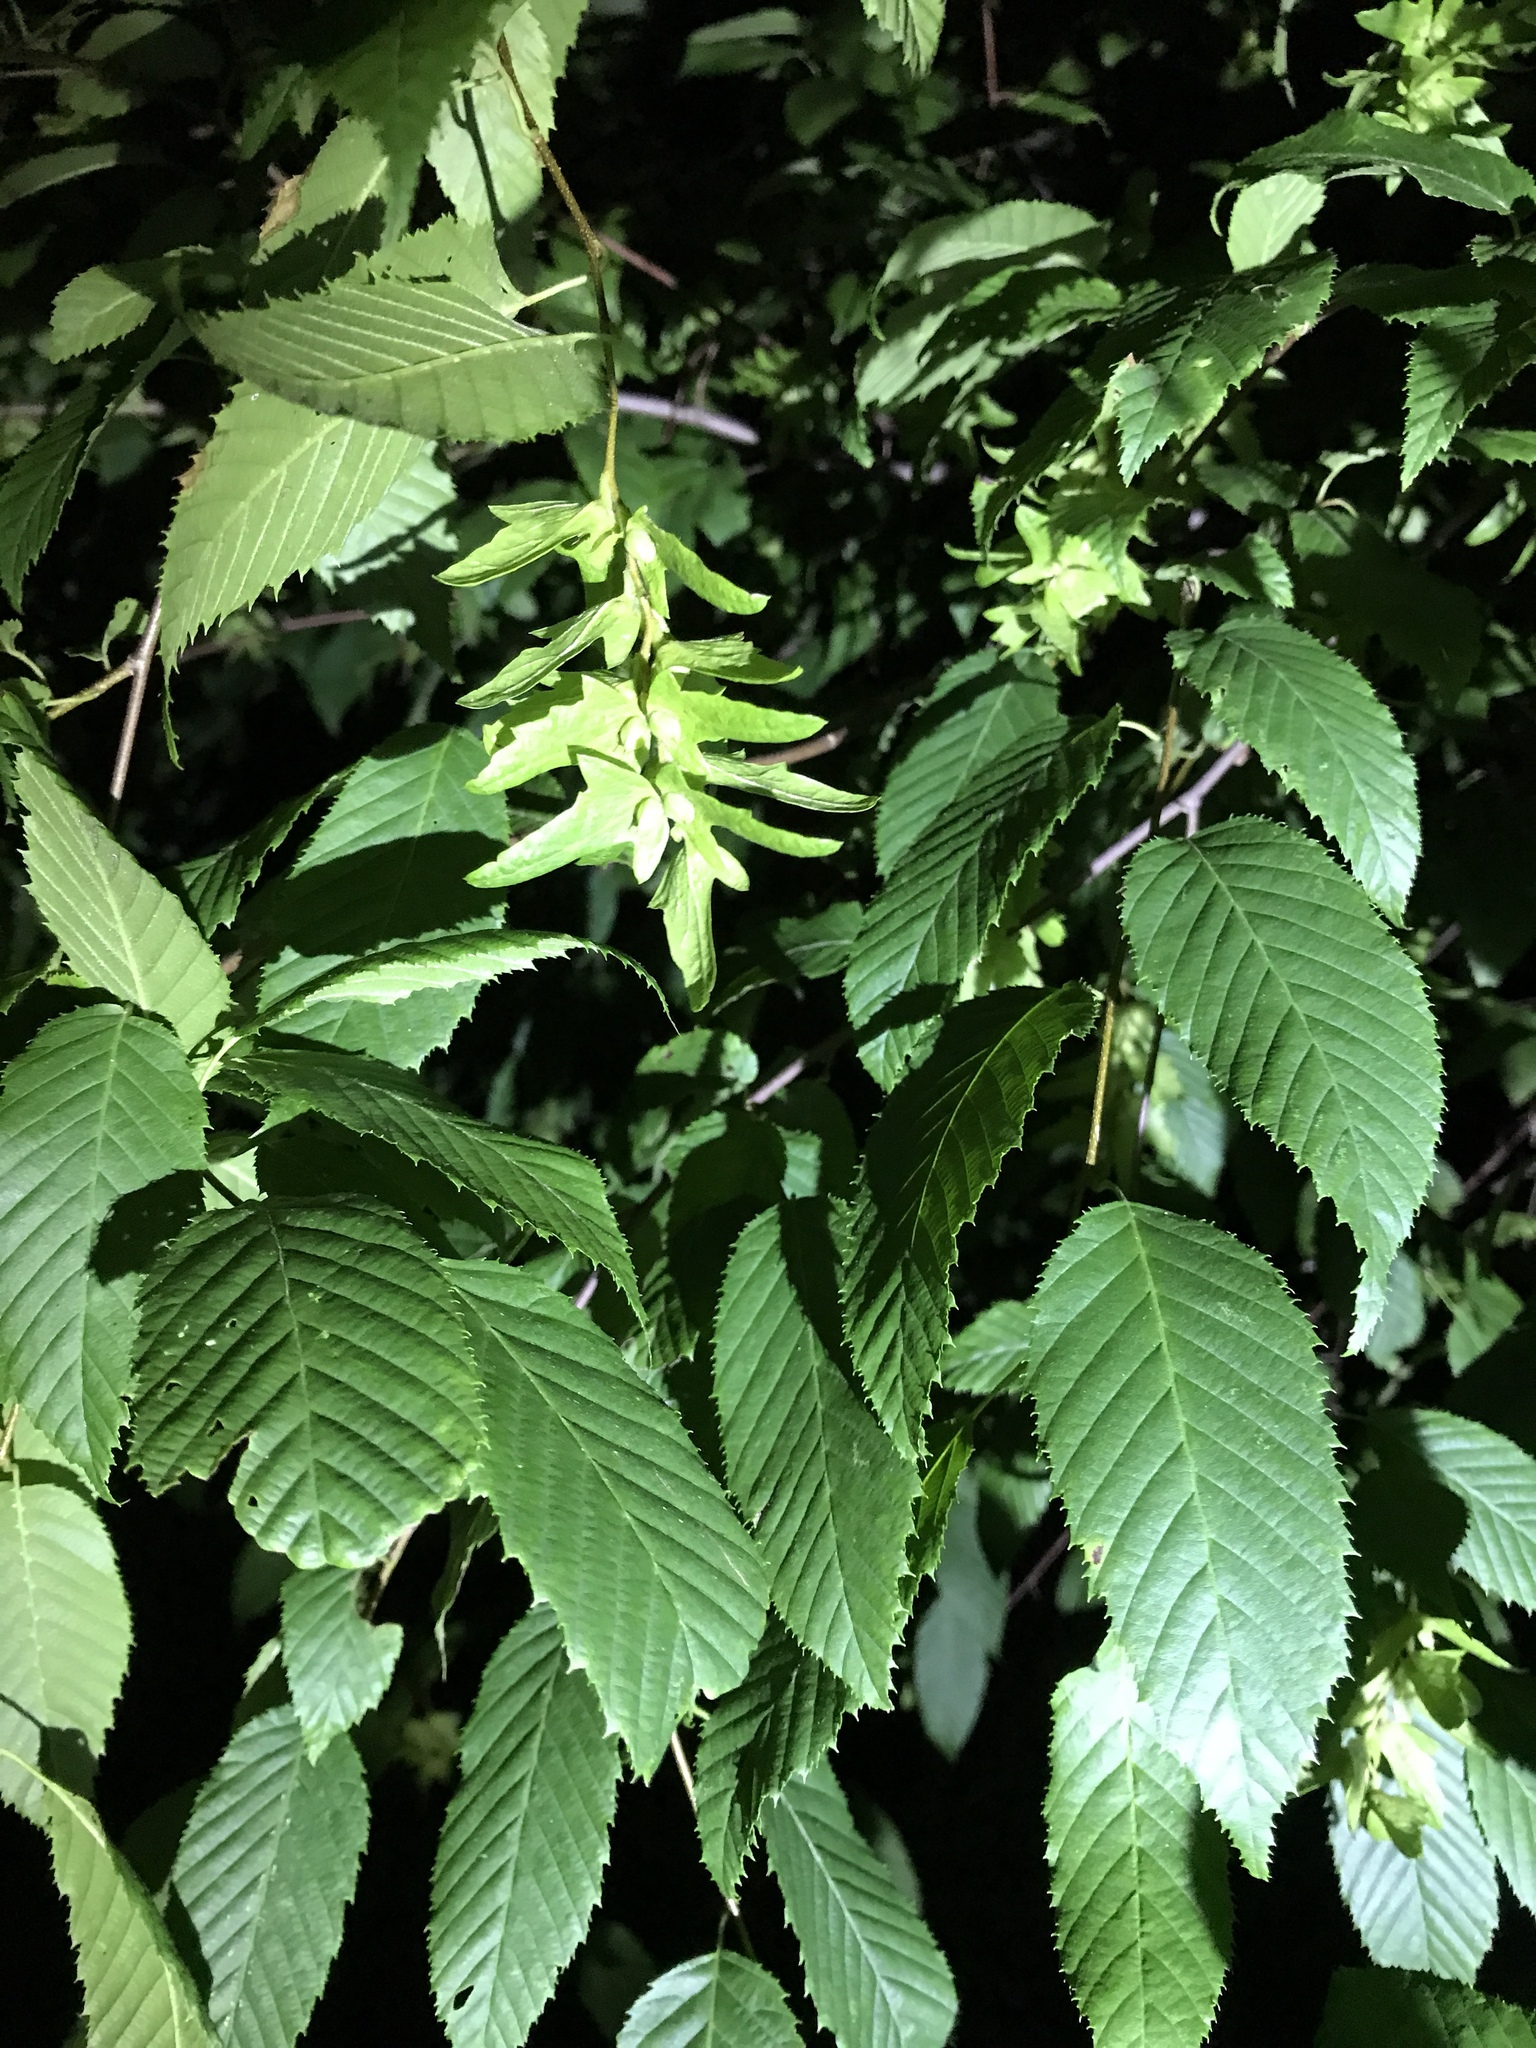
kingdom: Plantae
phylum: Tracheophyta
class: Magnoliopsida
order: Fagales
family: Betulaceae
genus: Carpinus
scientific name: Carpinus caroliniana
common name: American hornbeam
